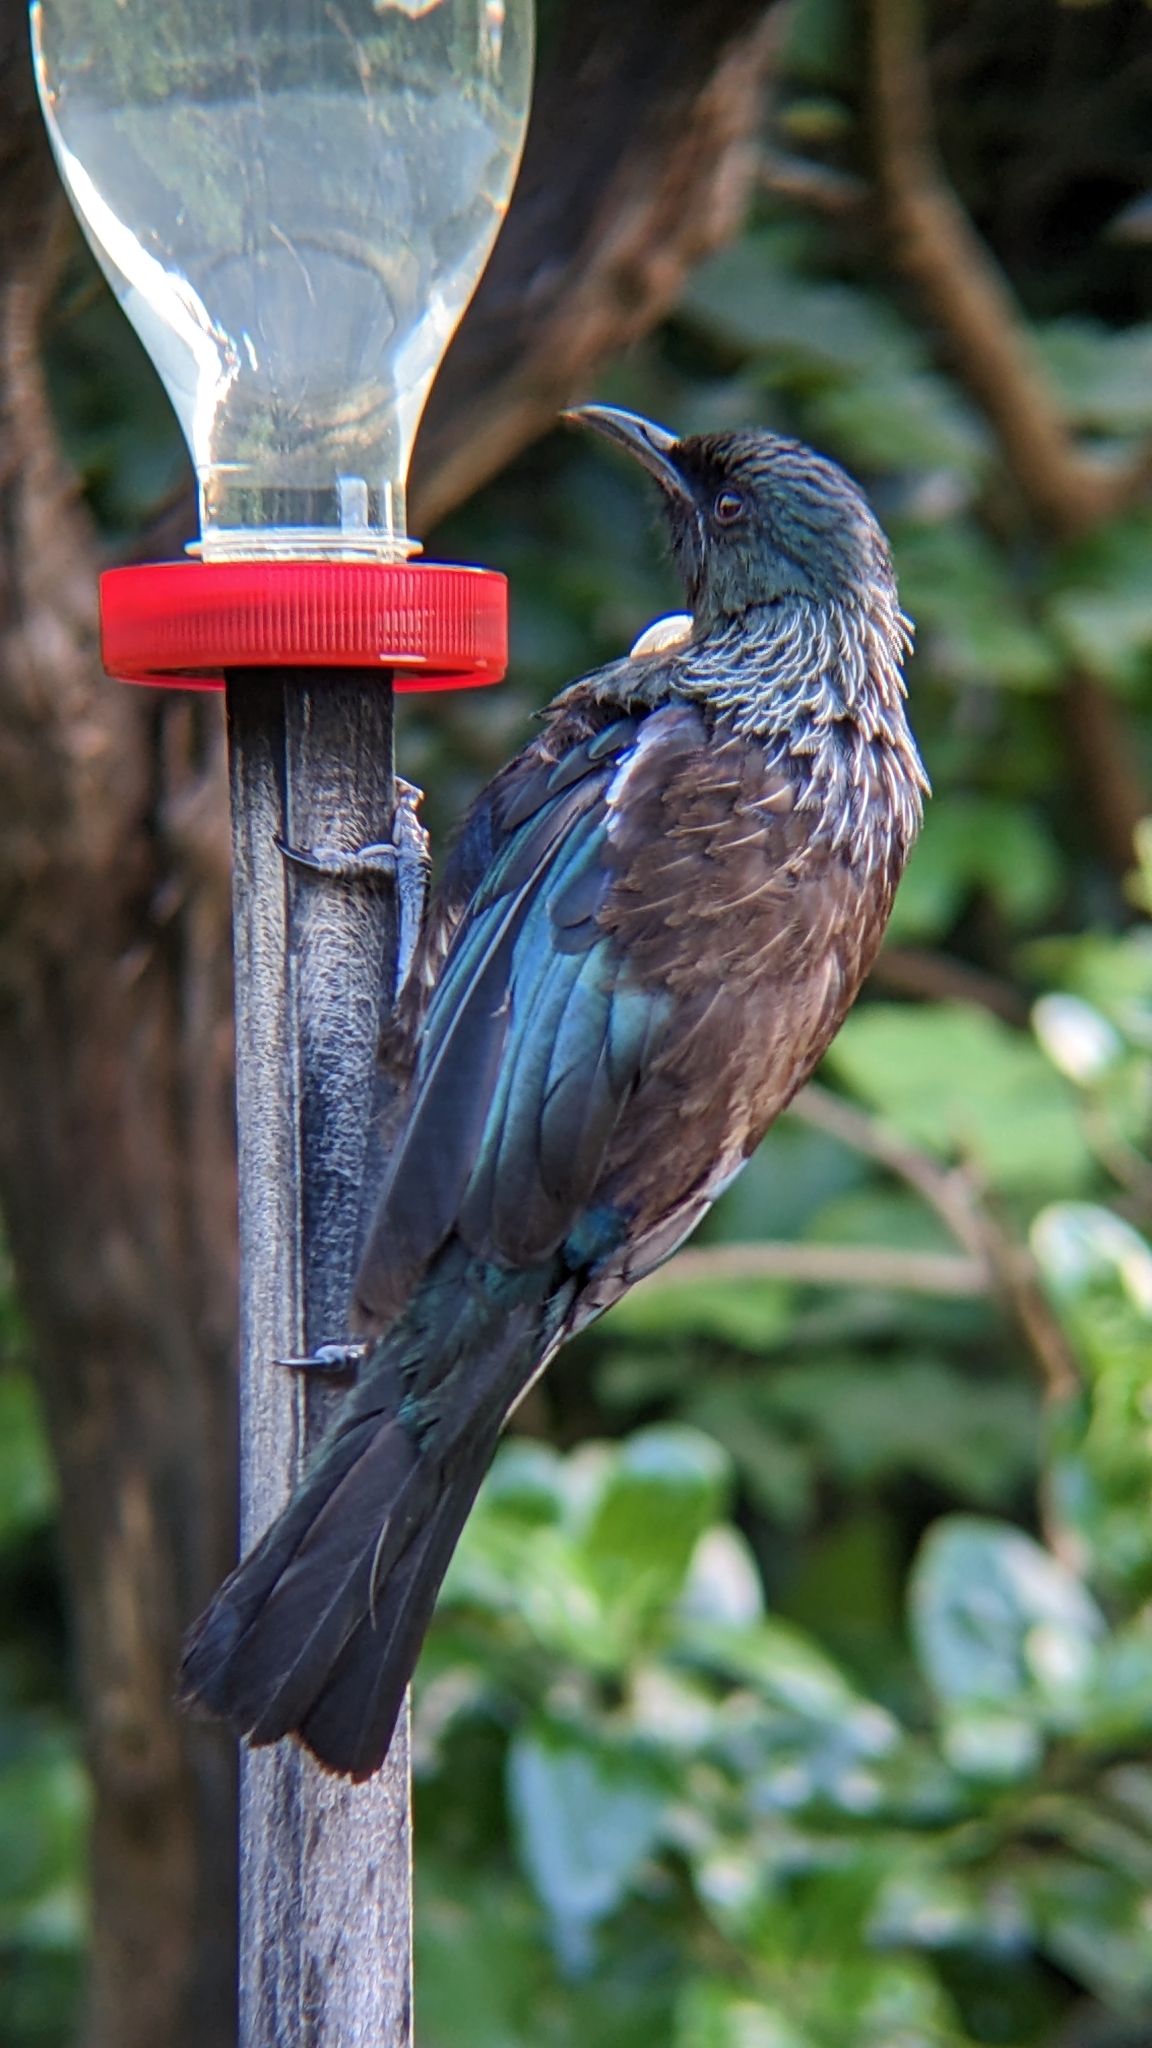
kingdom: Animalia
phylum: Chordata
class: Aves
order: Passeriformes
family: Meliphagidae
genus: Prosthemadera
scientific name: Prosthemadera novaeseelandiae
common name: Tui
